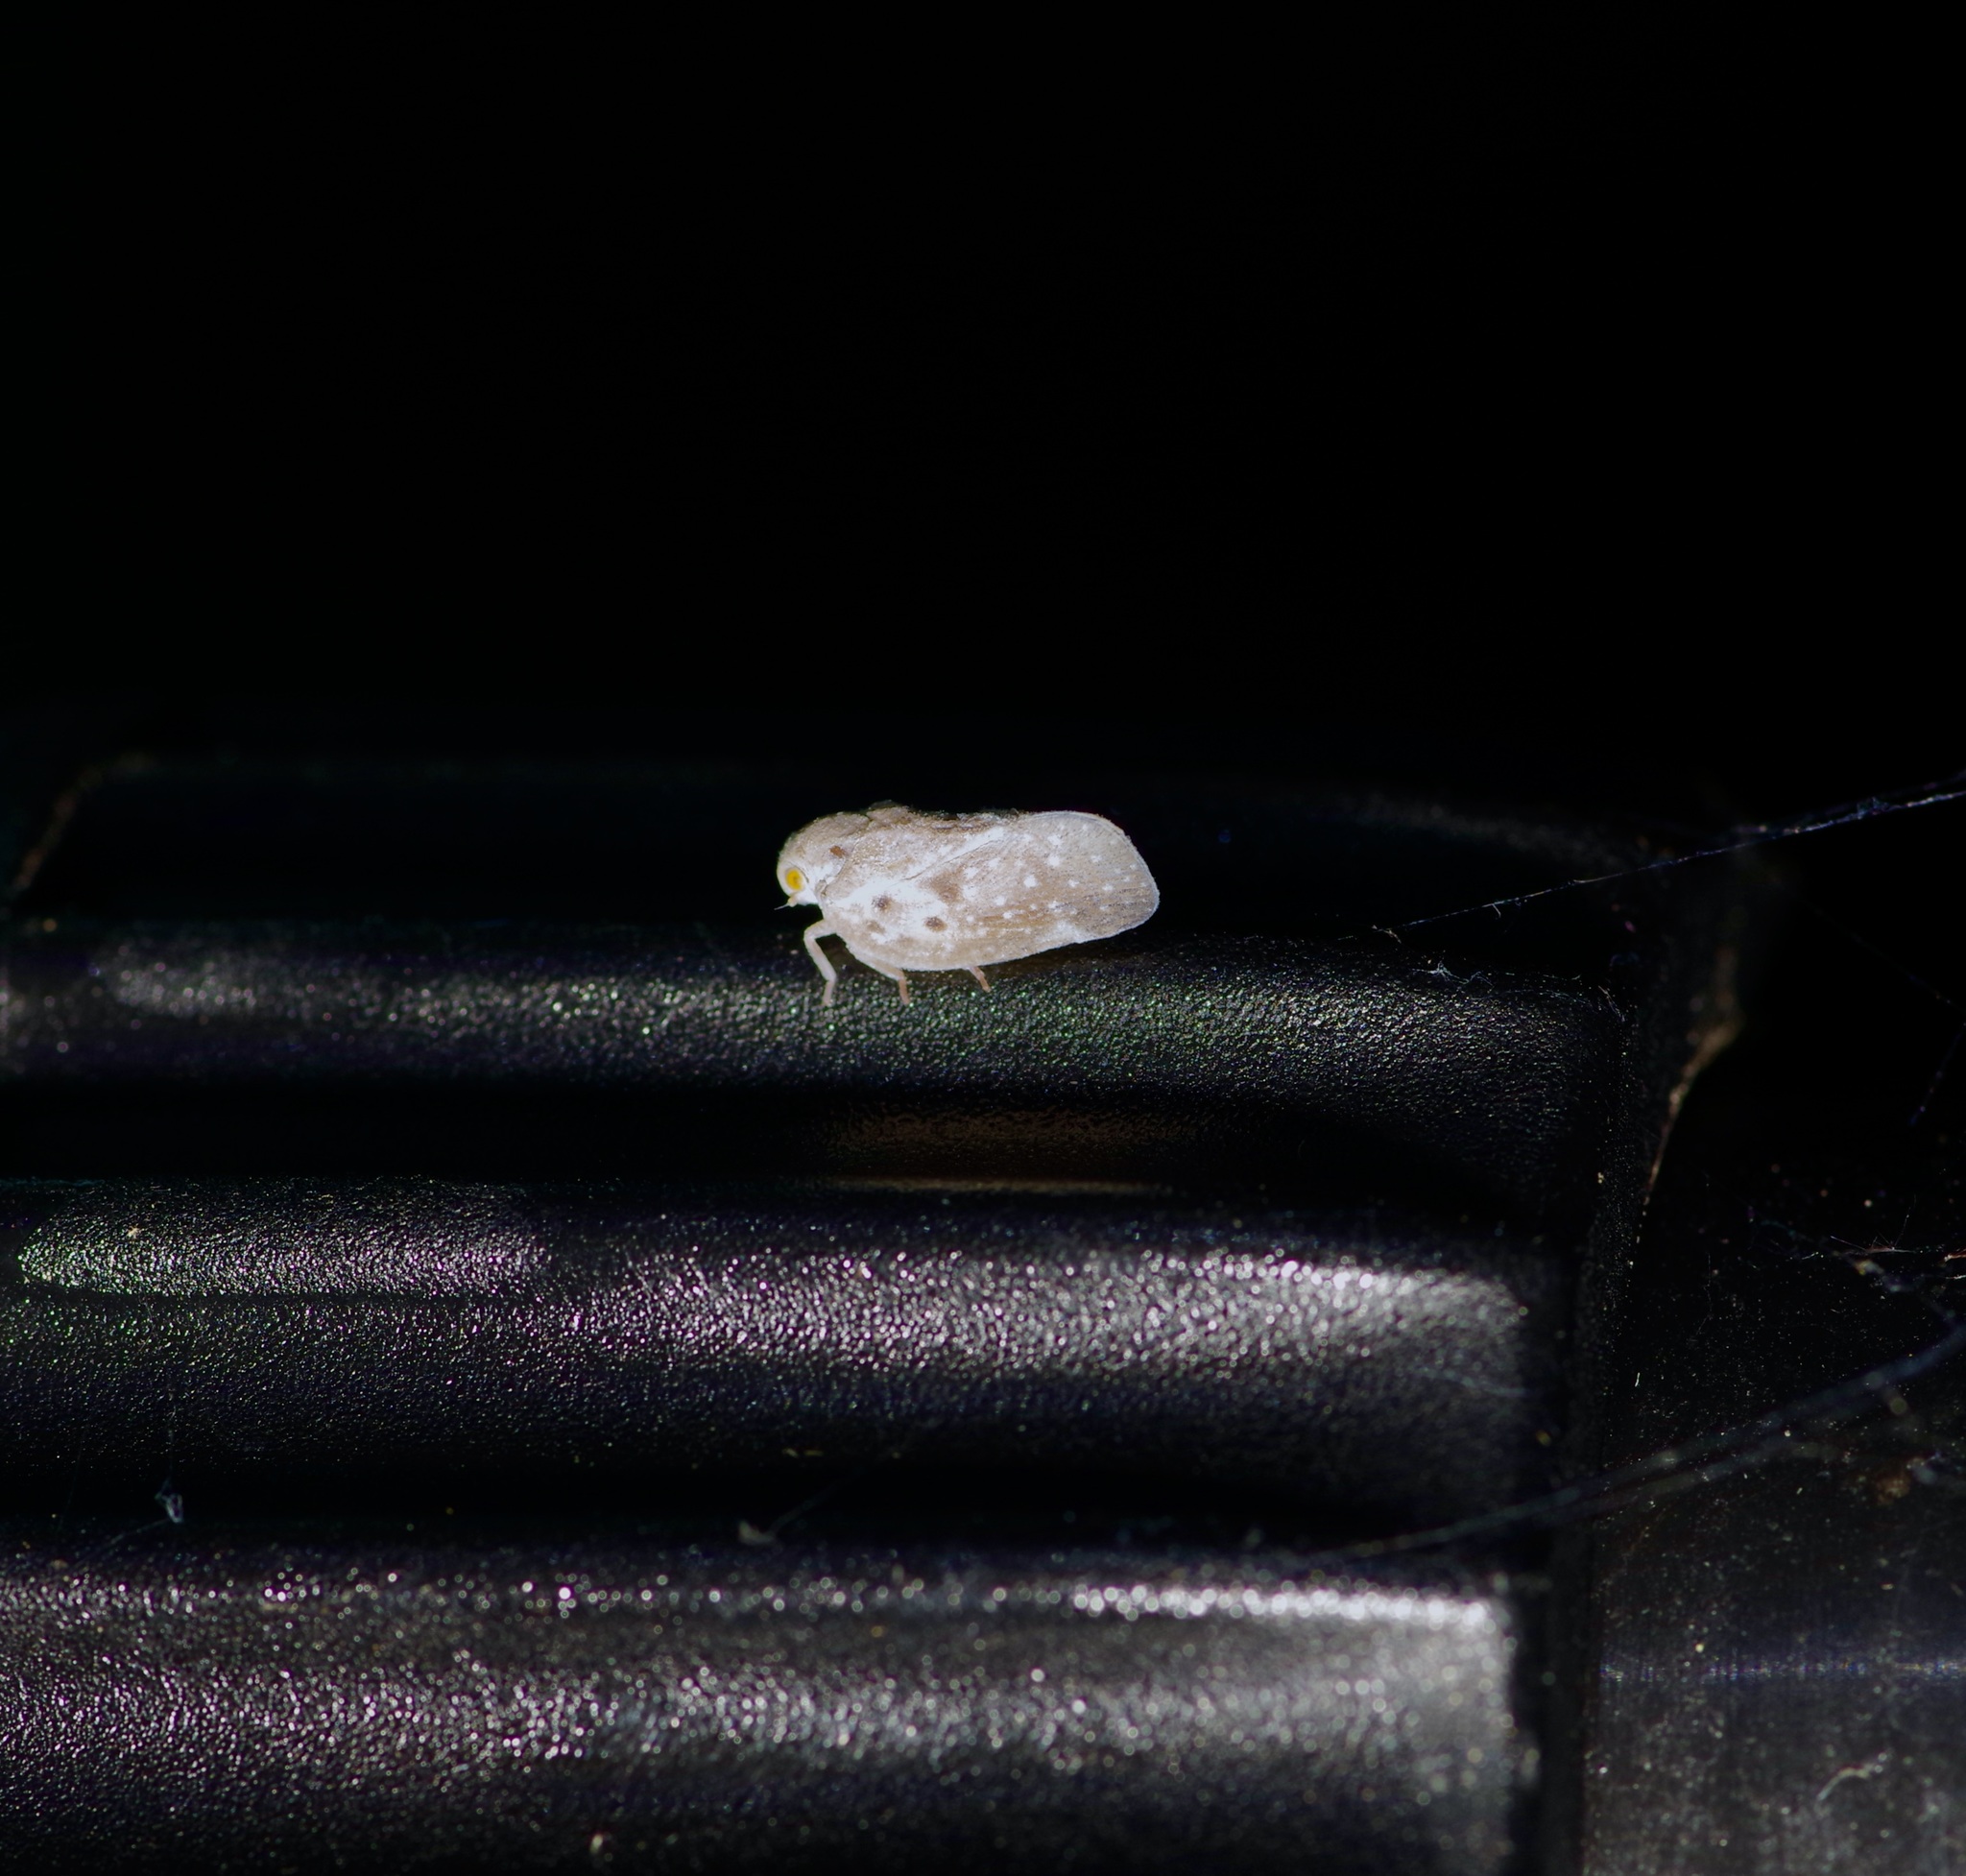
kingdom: Animalia
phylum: Arthropoda
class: Insecta
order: Hemiptera
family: Flatidae
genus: Metcalfa
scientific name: Metcalfa pruinosa
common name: Citrus flatid planthopper
